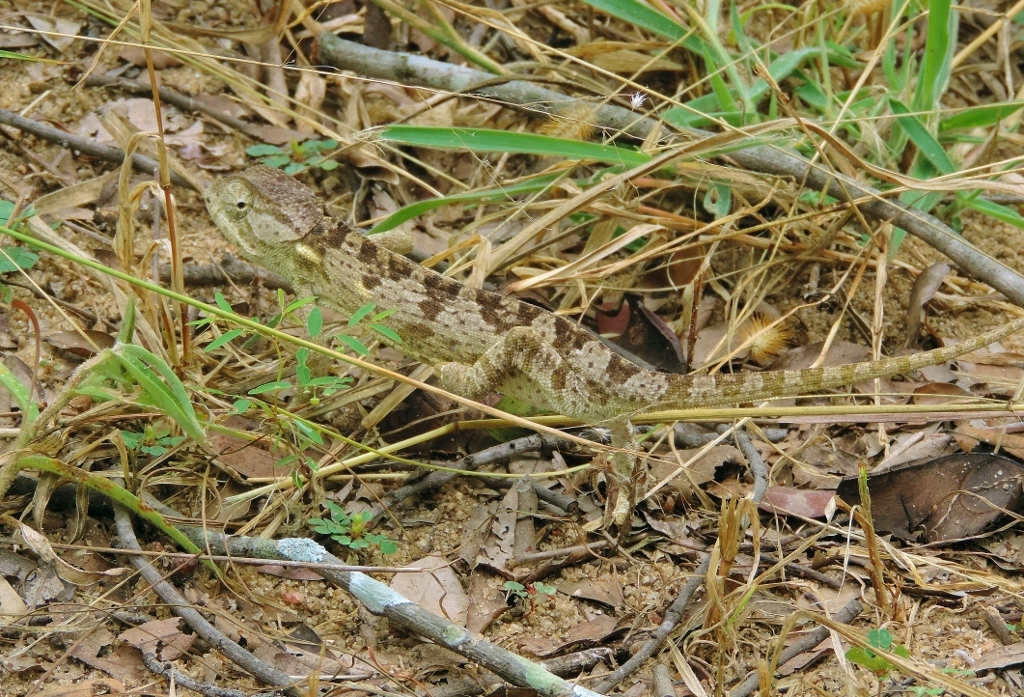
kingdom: Animalia
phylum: Chordata
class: Squamata
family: Chamaeleonidae
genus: Chamaeleo
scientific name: Chamaeleo dilepis
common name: Flapneck chameleon
